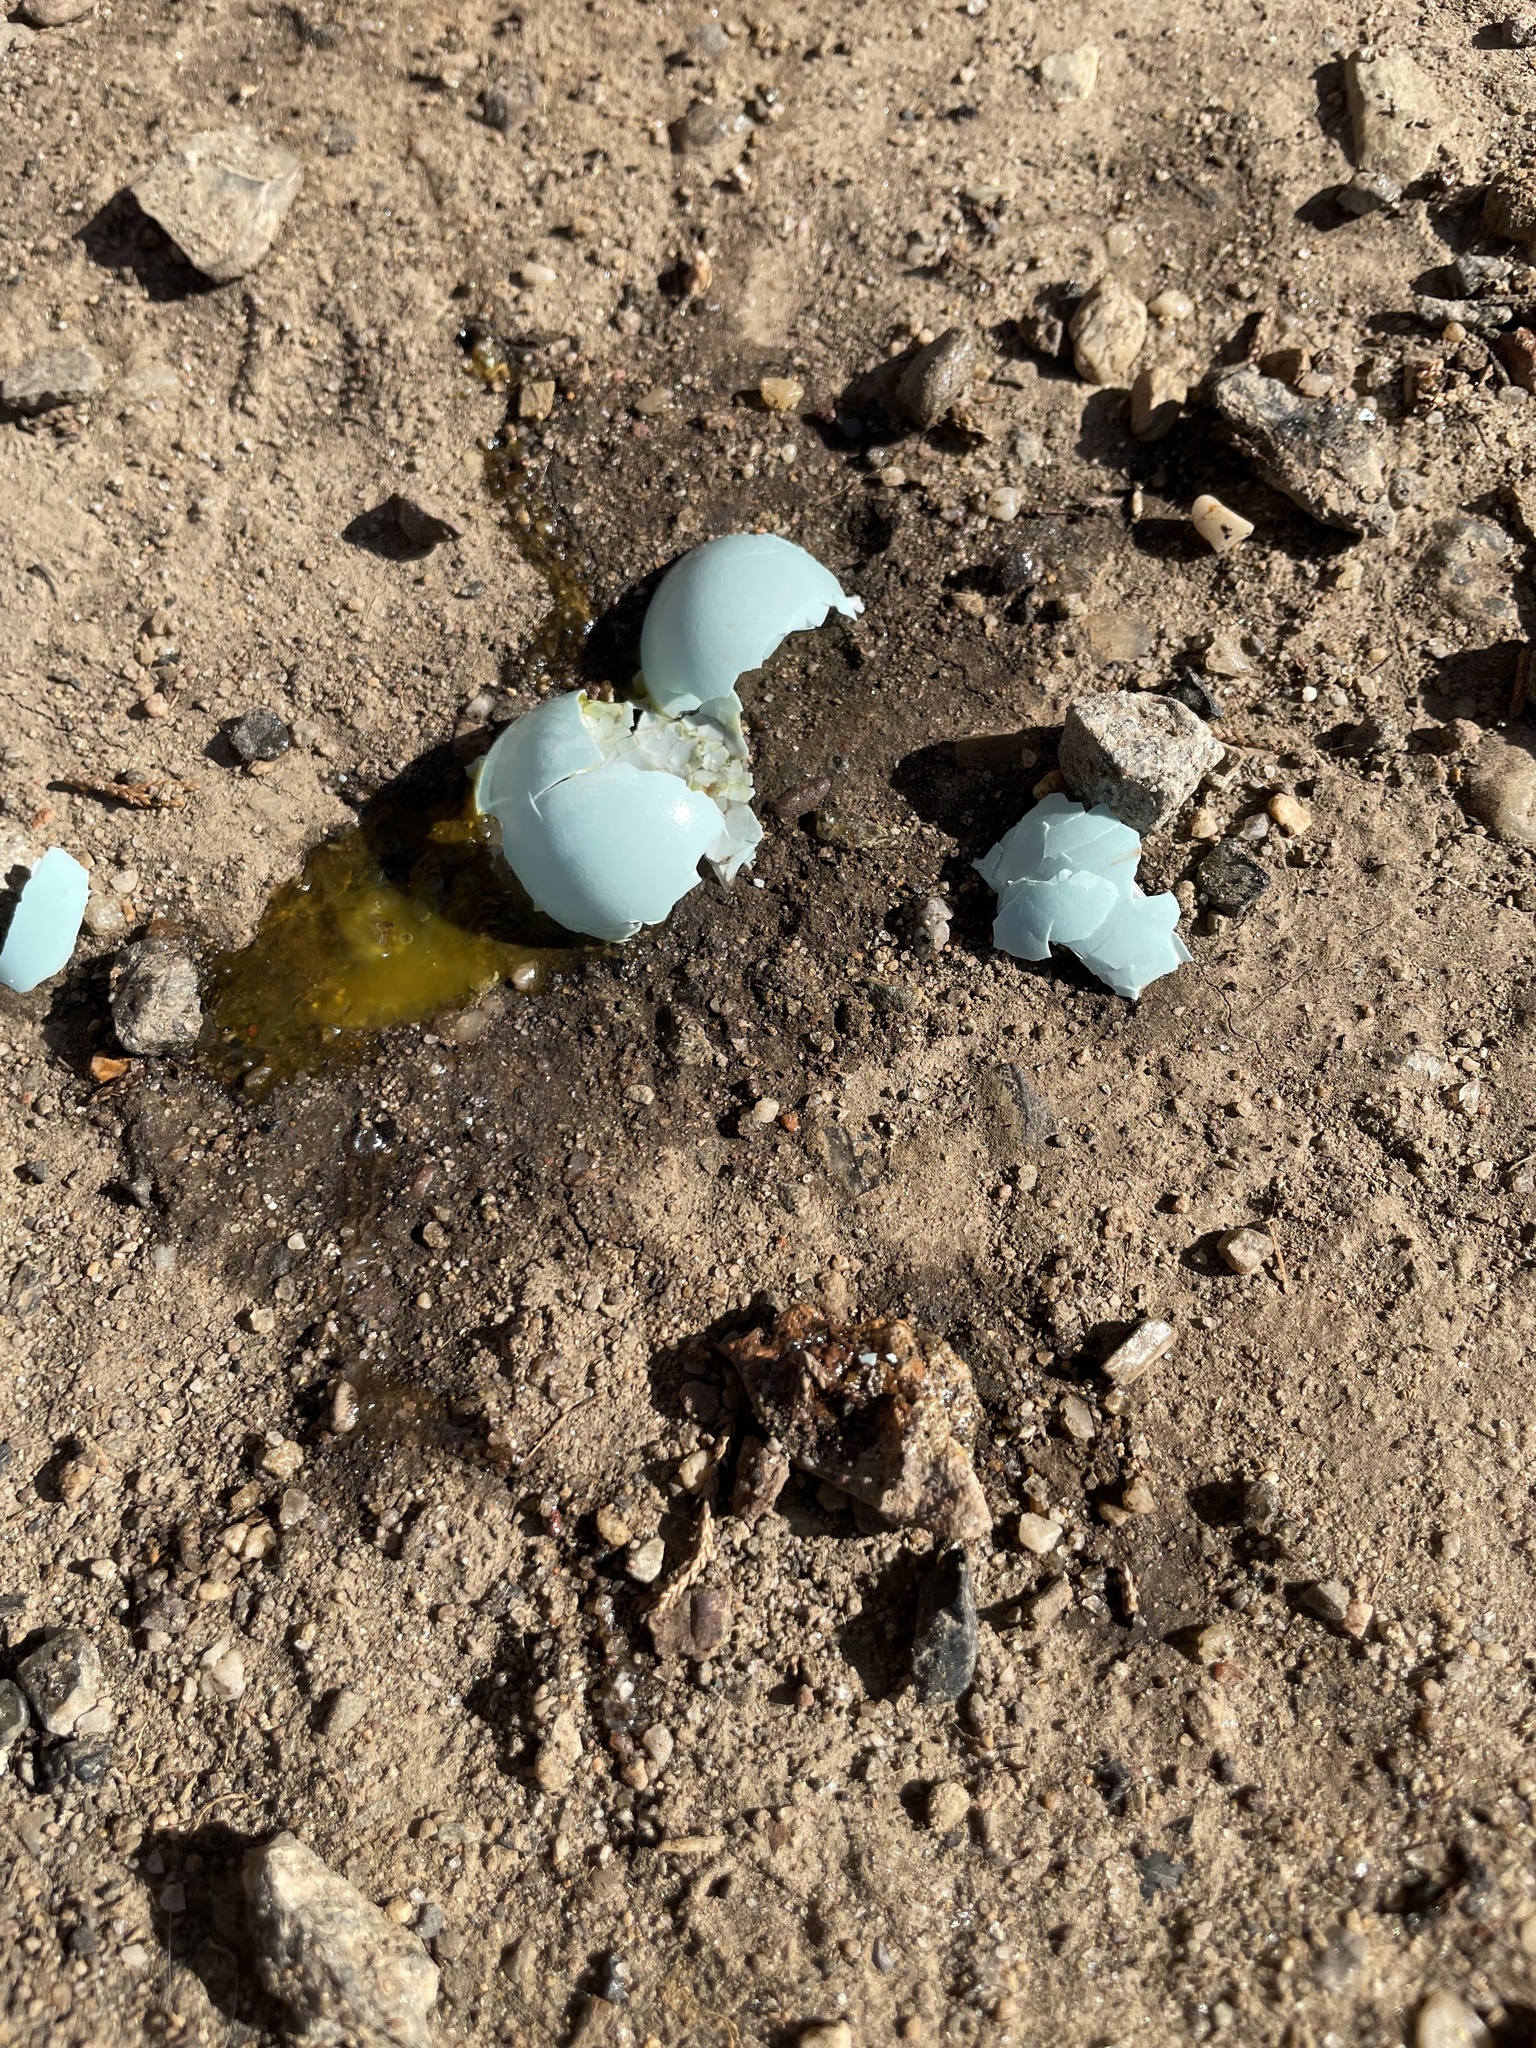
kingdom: Animalia
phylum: Chordata
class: Aves
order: Passeriformes
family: Turdidae
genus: Turdus
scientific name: Turdus migratorius
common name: American robin
